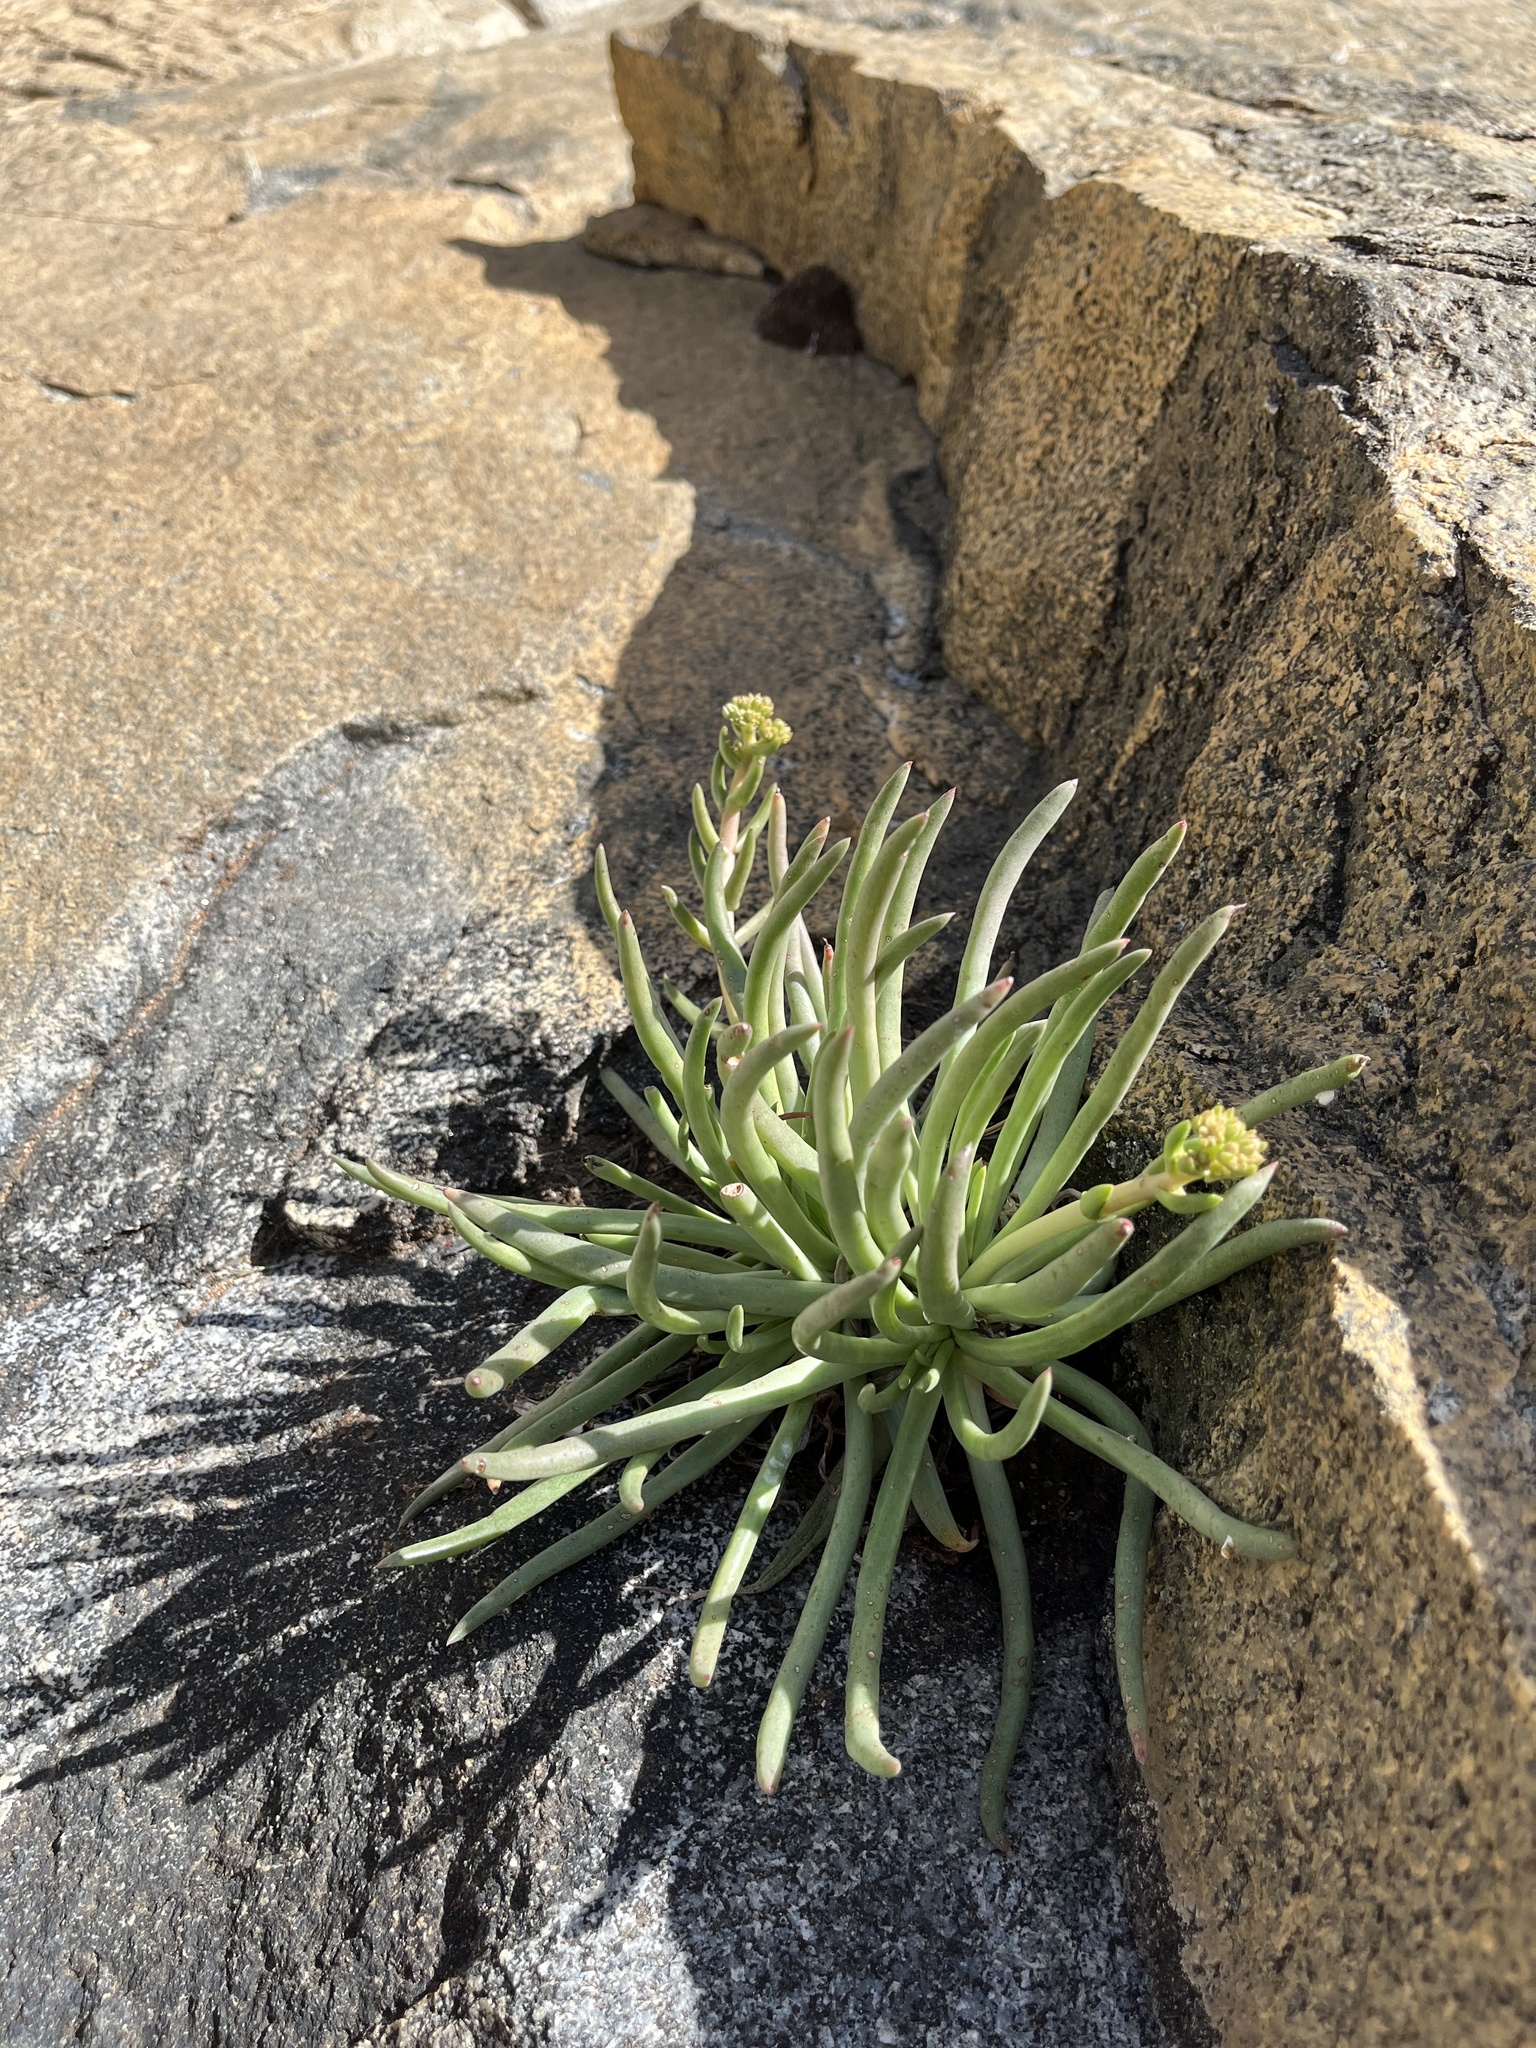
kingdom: Plantae
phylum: Tracheophyta
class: Magnoliopsida
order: Saxifragales
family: Crassulaceae
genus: Dudleya
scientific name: Dudleya edulis
